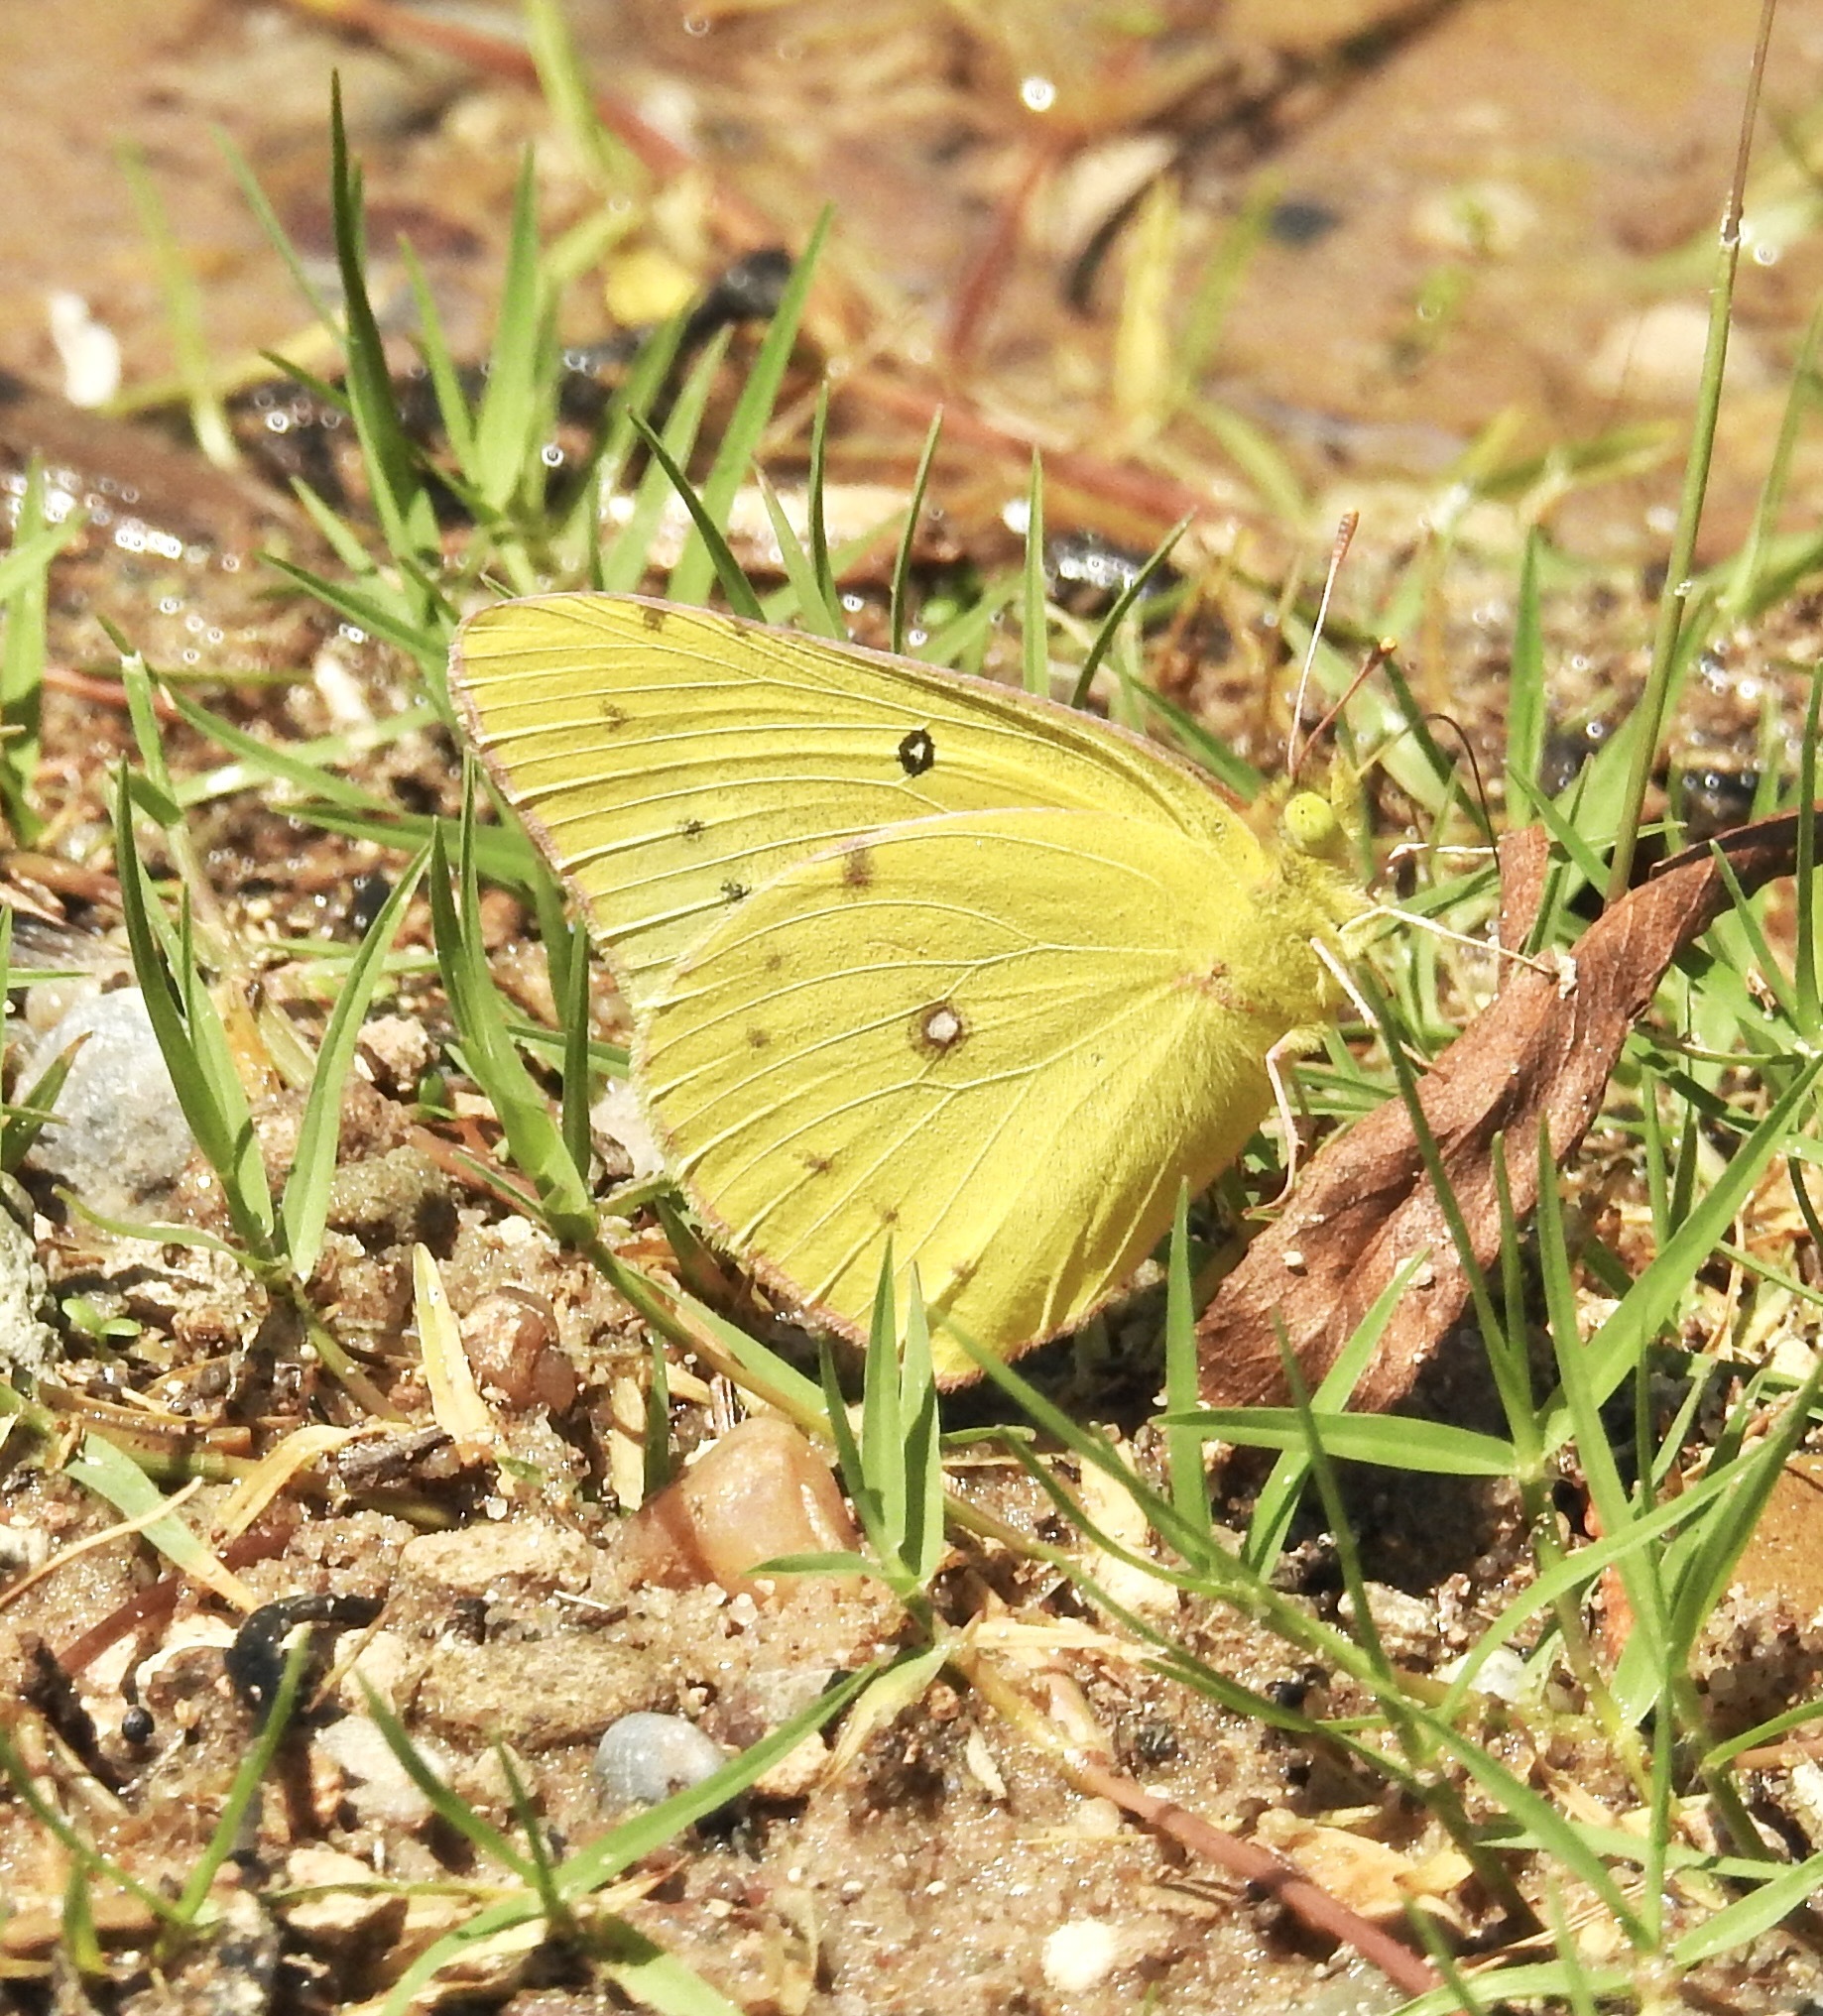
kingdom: Animalia
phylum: Arthropoda
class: Insecta
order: Lepidoptera
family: Pieridae
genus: Colias
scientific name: Colias eurytheme
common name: Alfalfa butterfly
